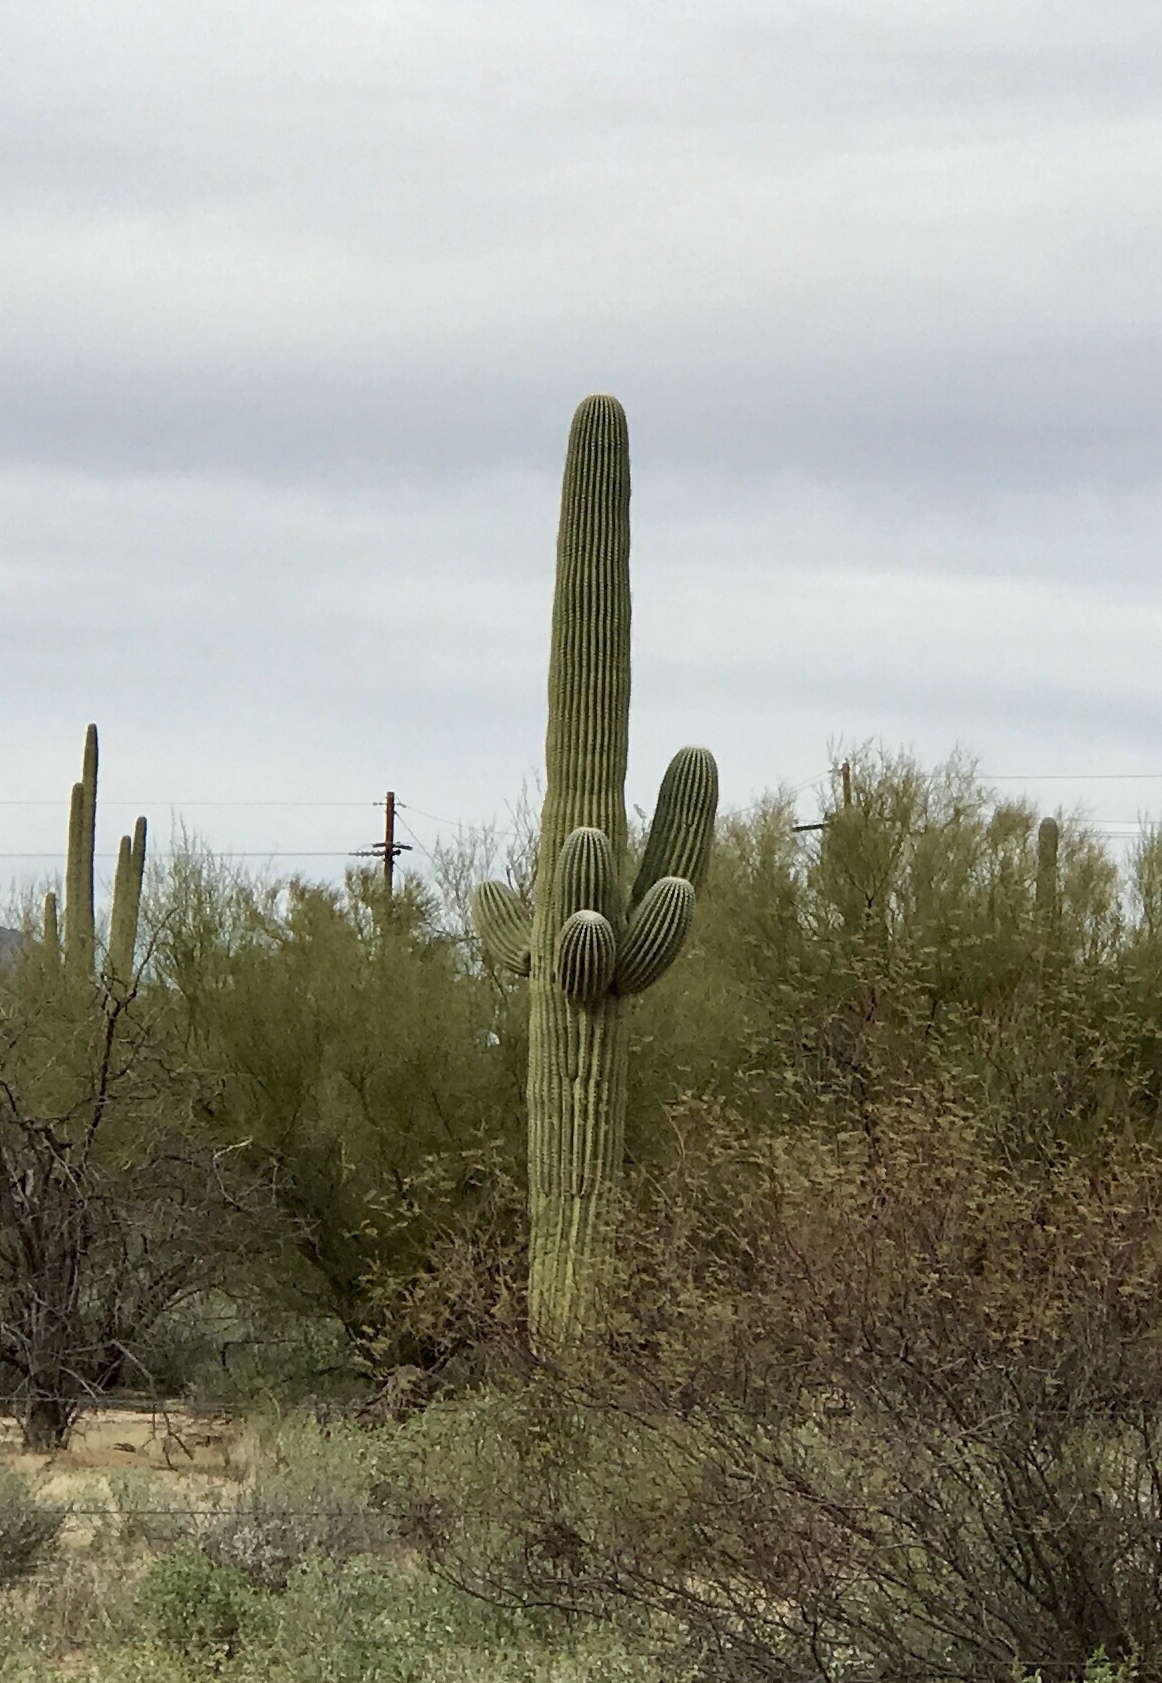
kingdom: Plantae
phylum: Tracheophyta
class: Magnoliopsida
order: Caryophyllales
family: Cactaceae
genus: Carnegiea
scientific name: Carnegiea gigantea
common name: Saguaro
